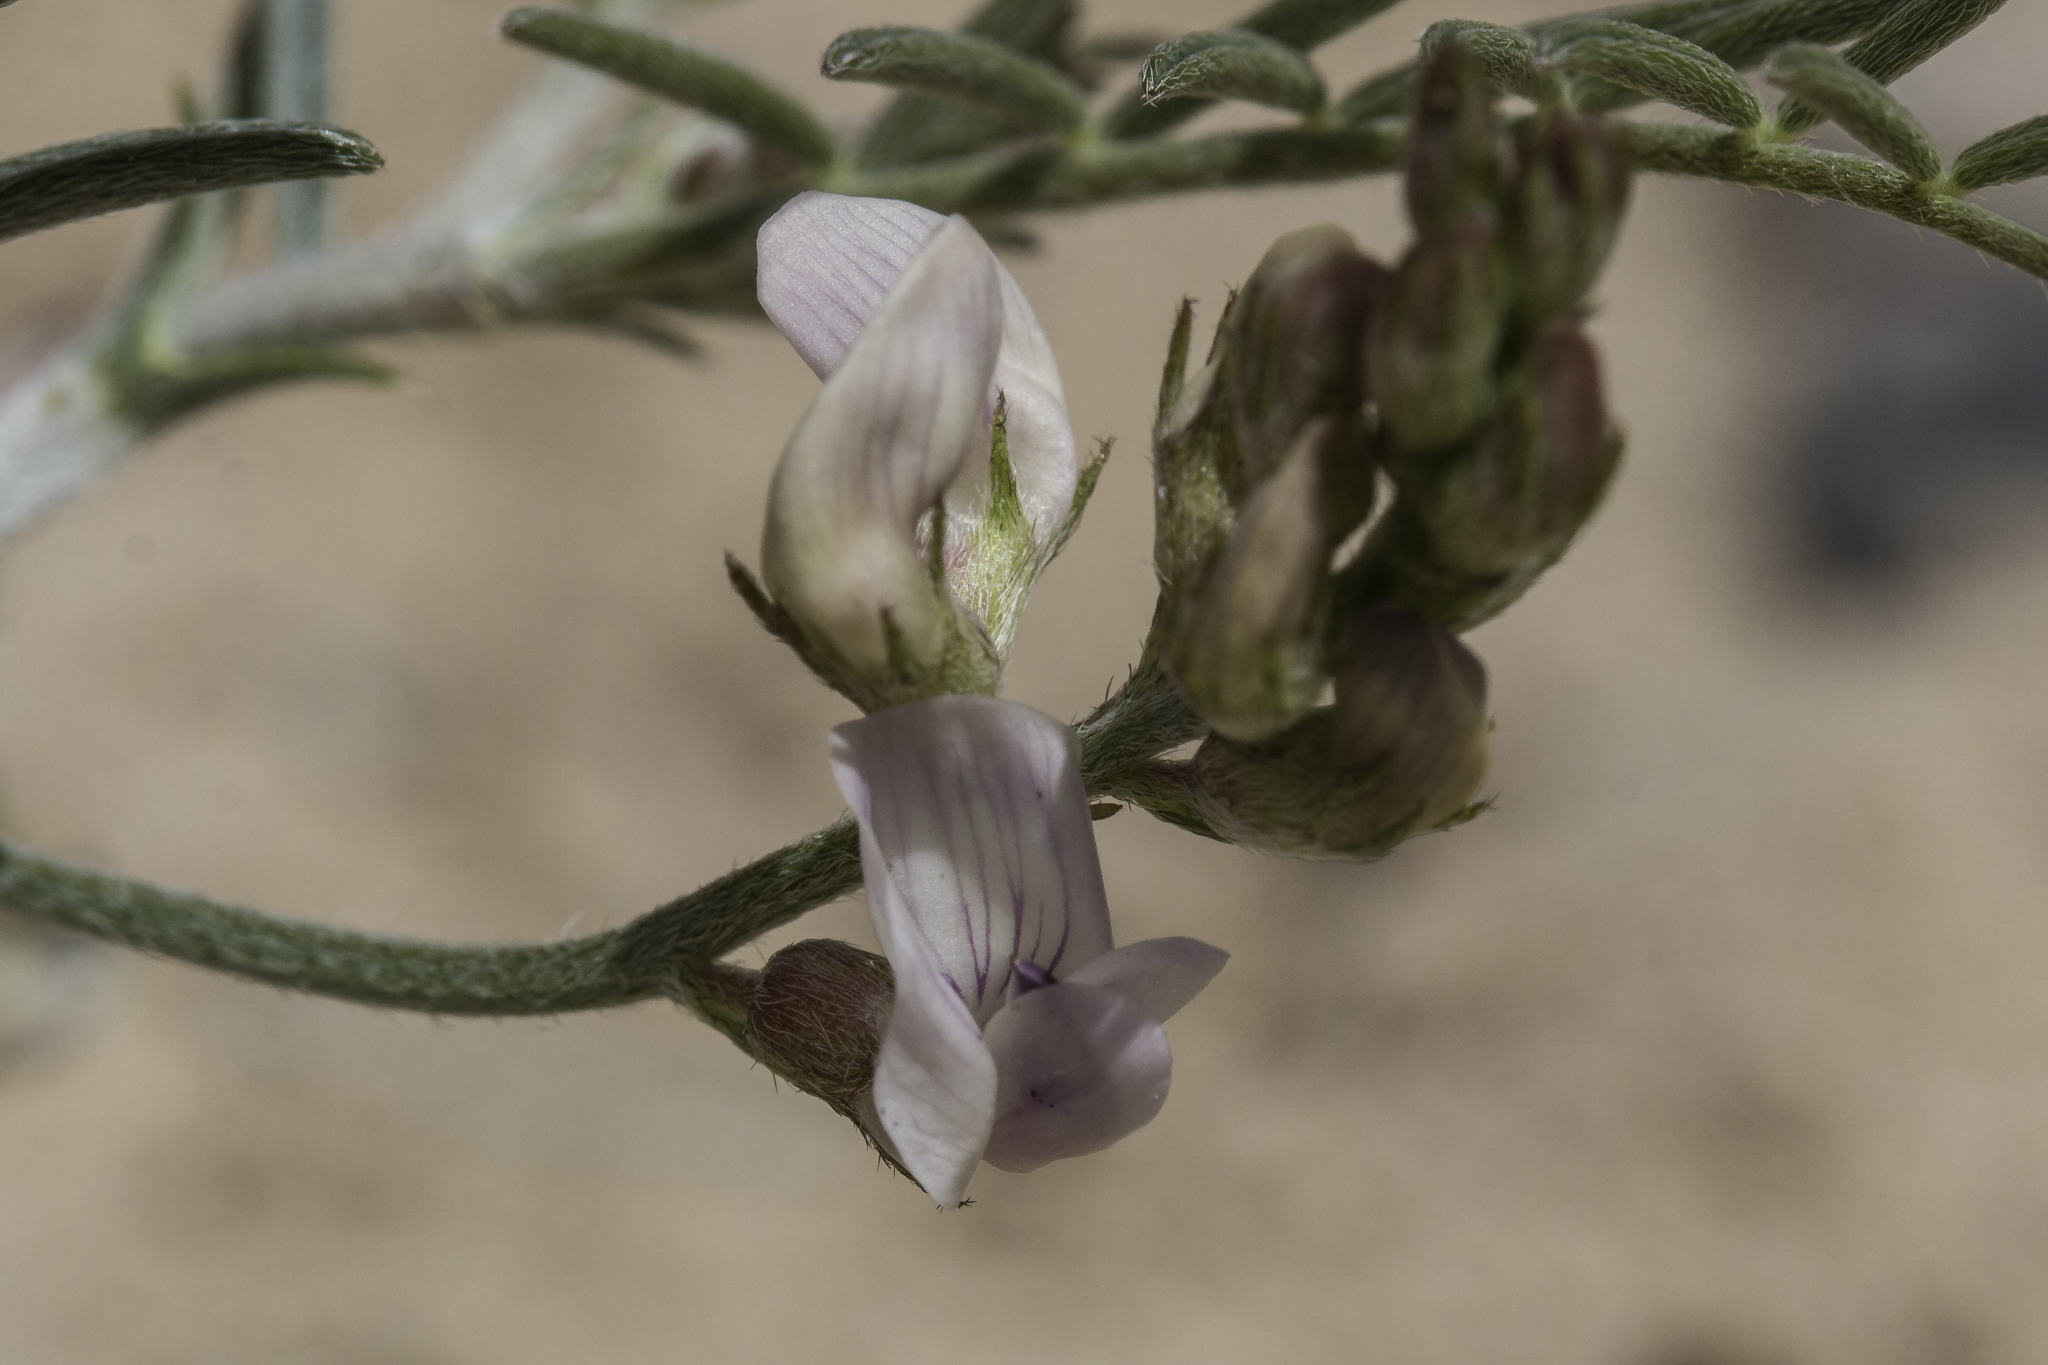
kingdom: Plantae
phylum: Tracheophyta
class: Magnoliopsida
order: Fabales
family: Fabaceae
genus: Astragalus
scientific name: Astragalus ceramicus
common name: Painted milk-vetch
